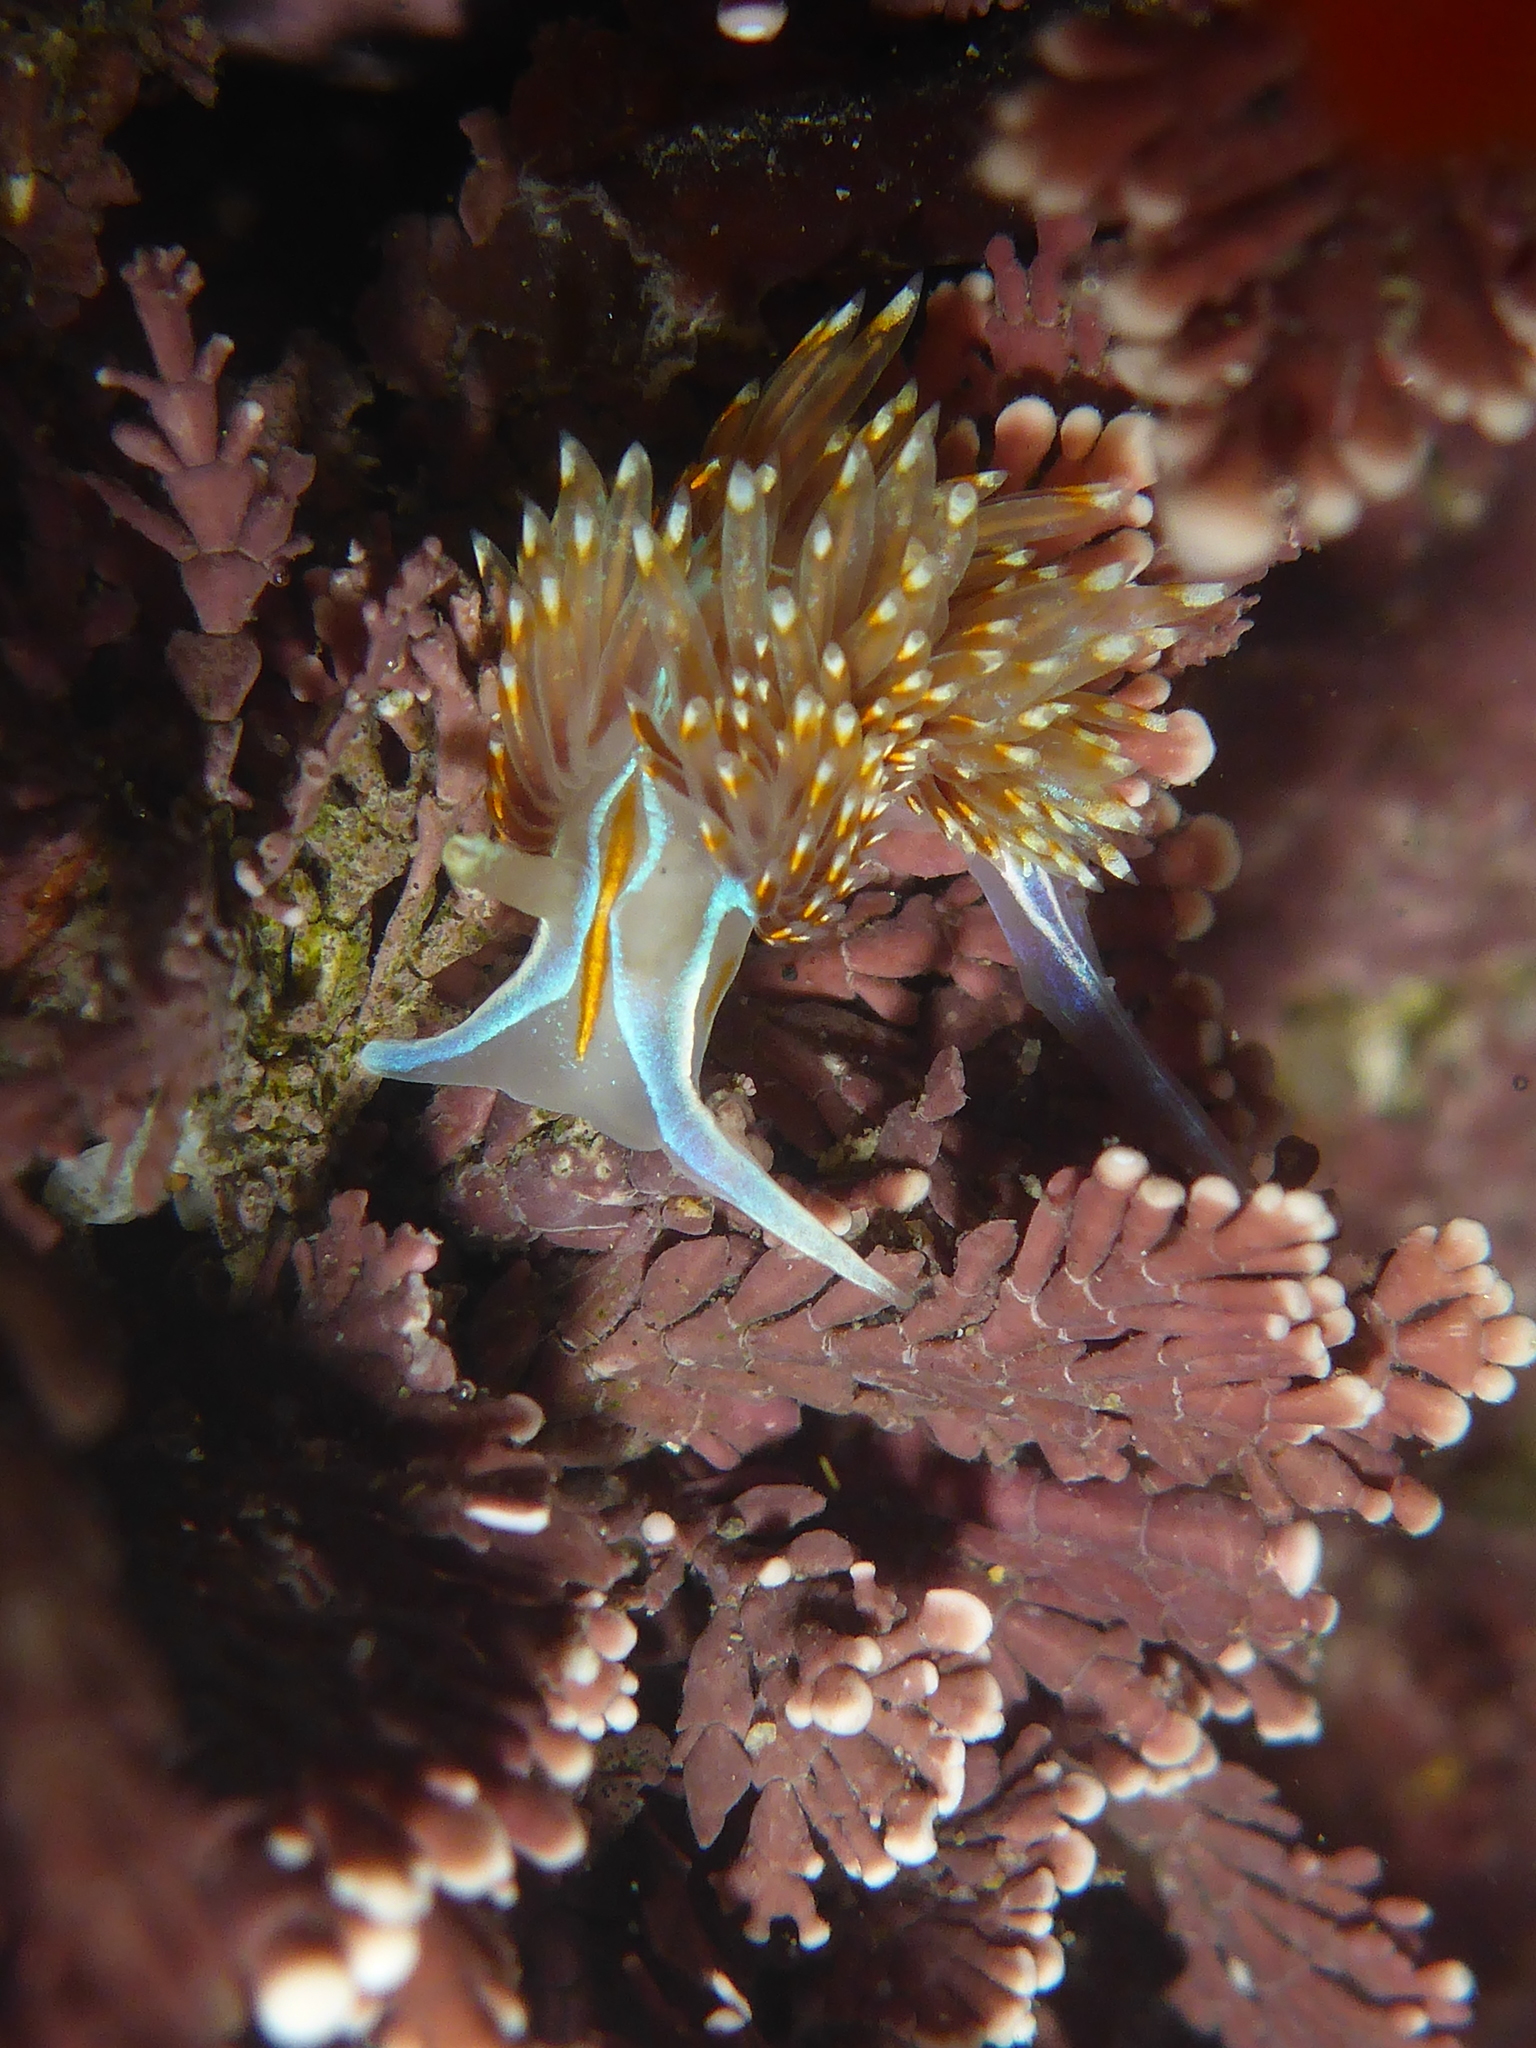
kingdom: Animalia
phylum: Mollusca
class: Gastropoda
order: Nudibranchia
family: Myrrhinidae
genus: Hermissenda
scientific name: Hermissenda opalescens
